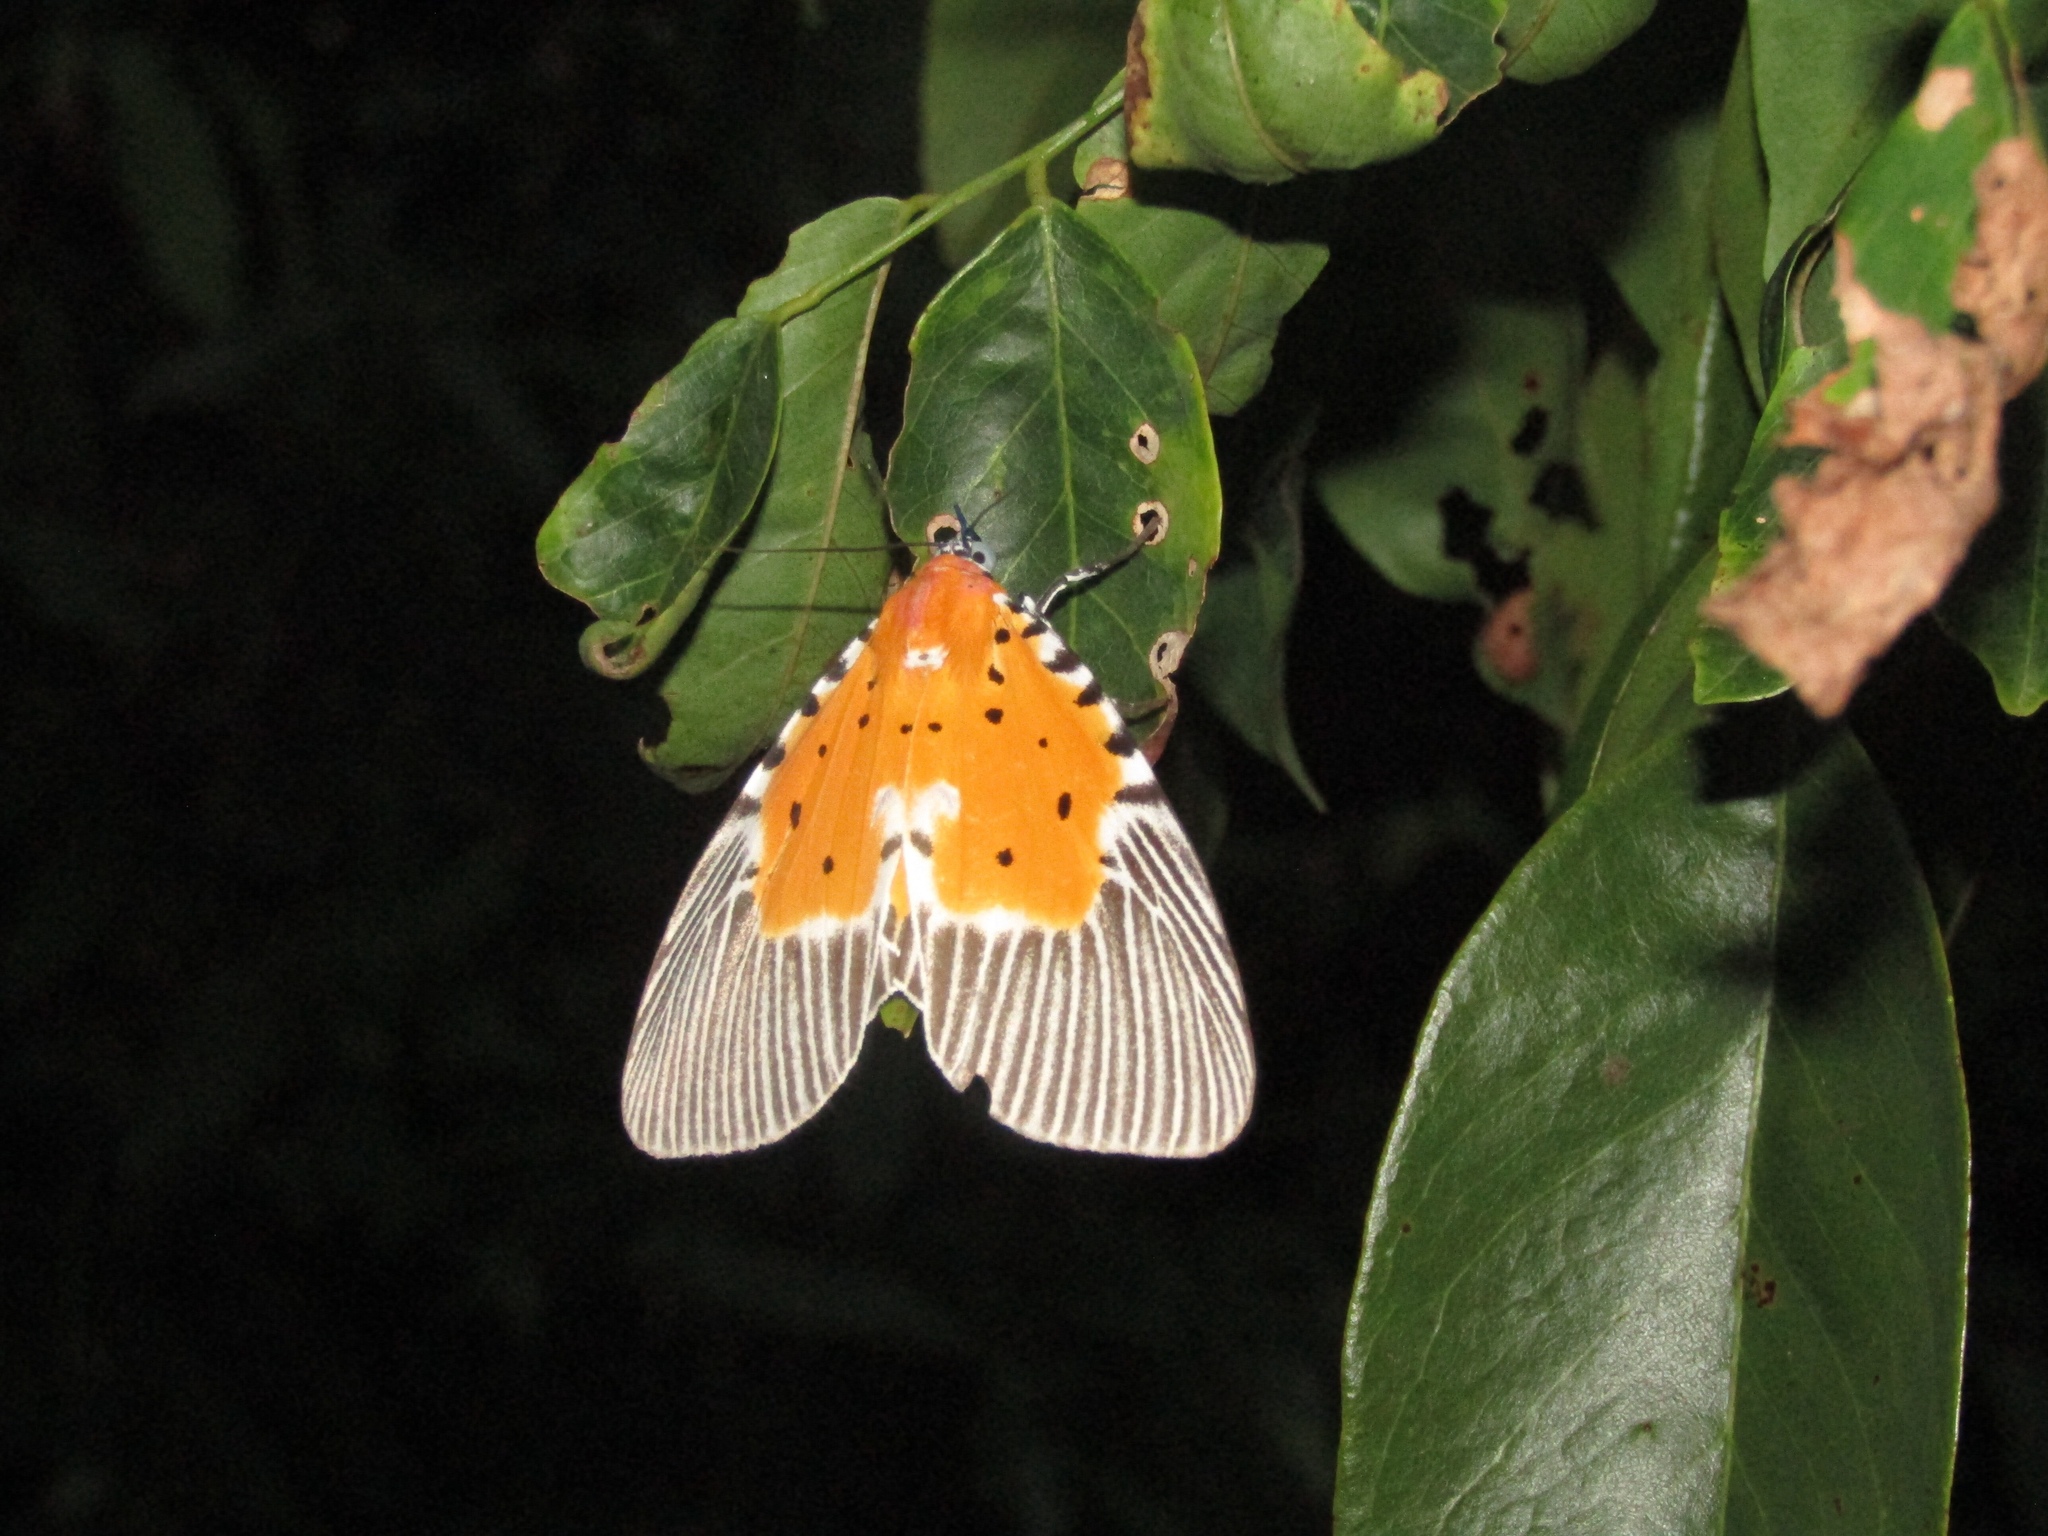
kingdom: Animalia
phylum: Arthropoda
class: Insecta
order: Lepidoptera
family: Erebidae
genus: Peridrome
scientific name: Peridrome orbicularis
